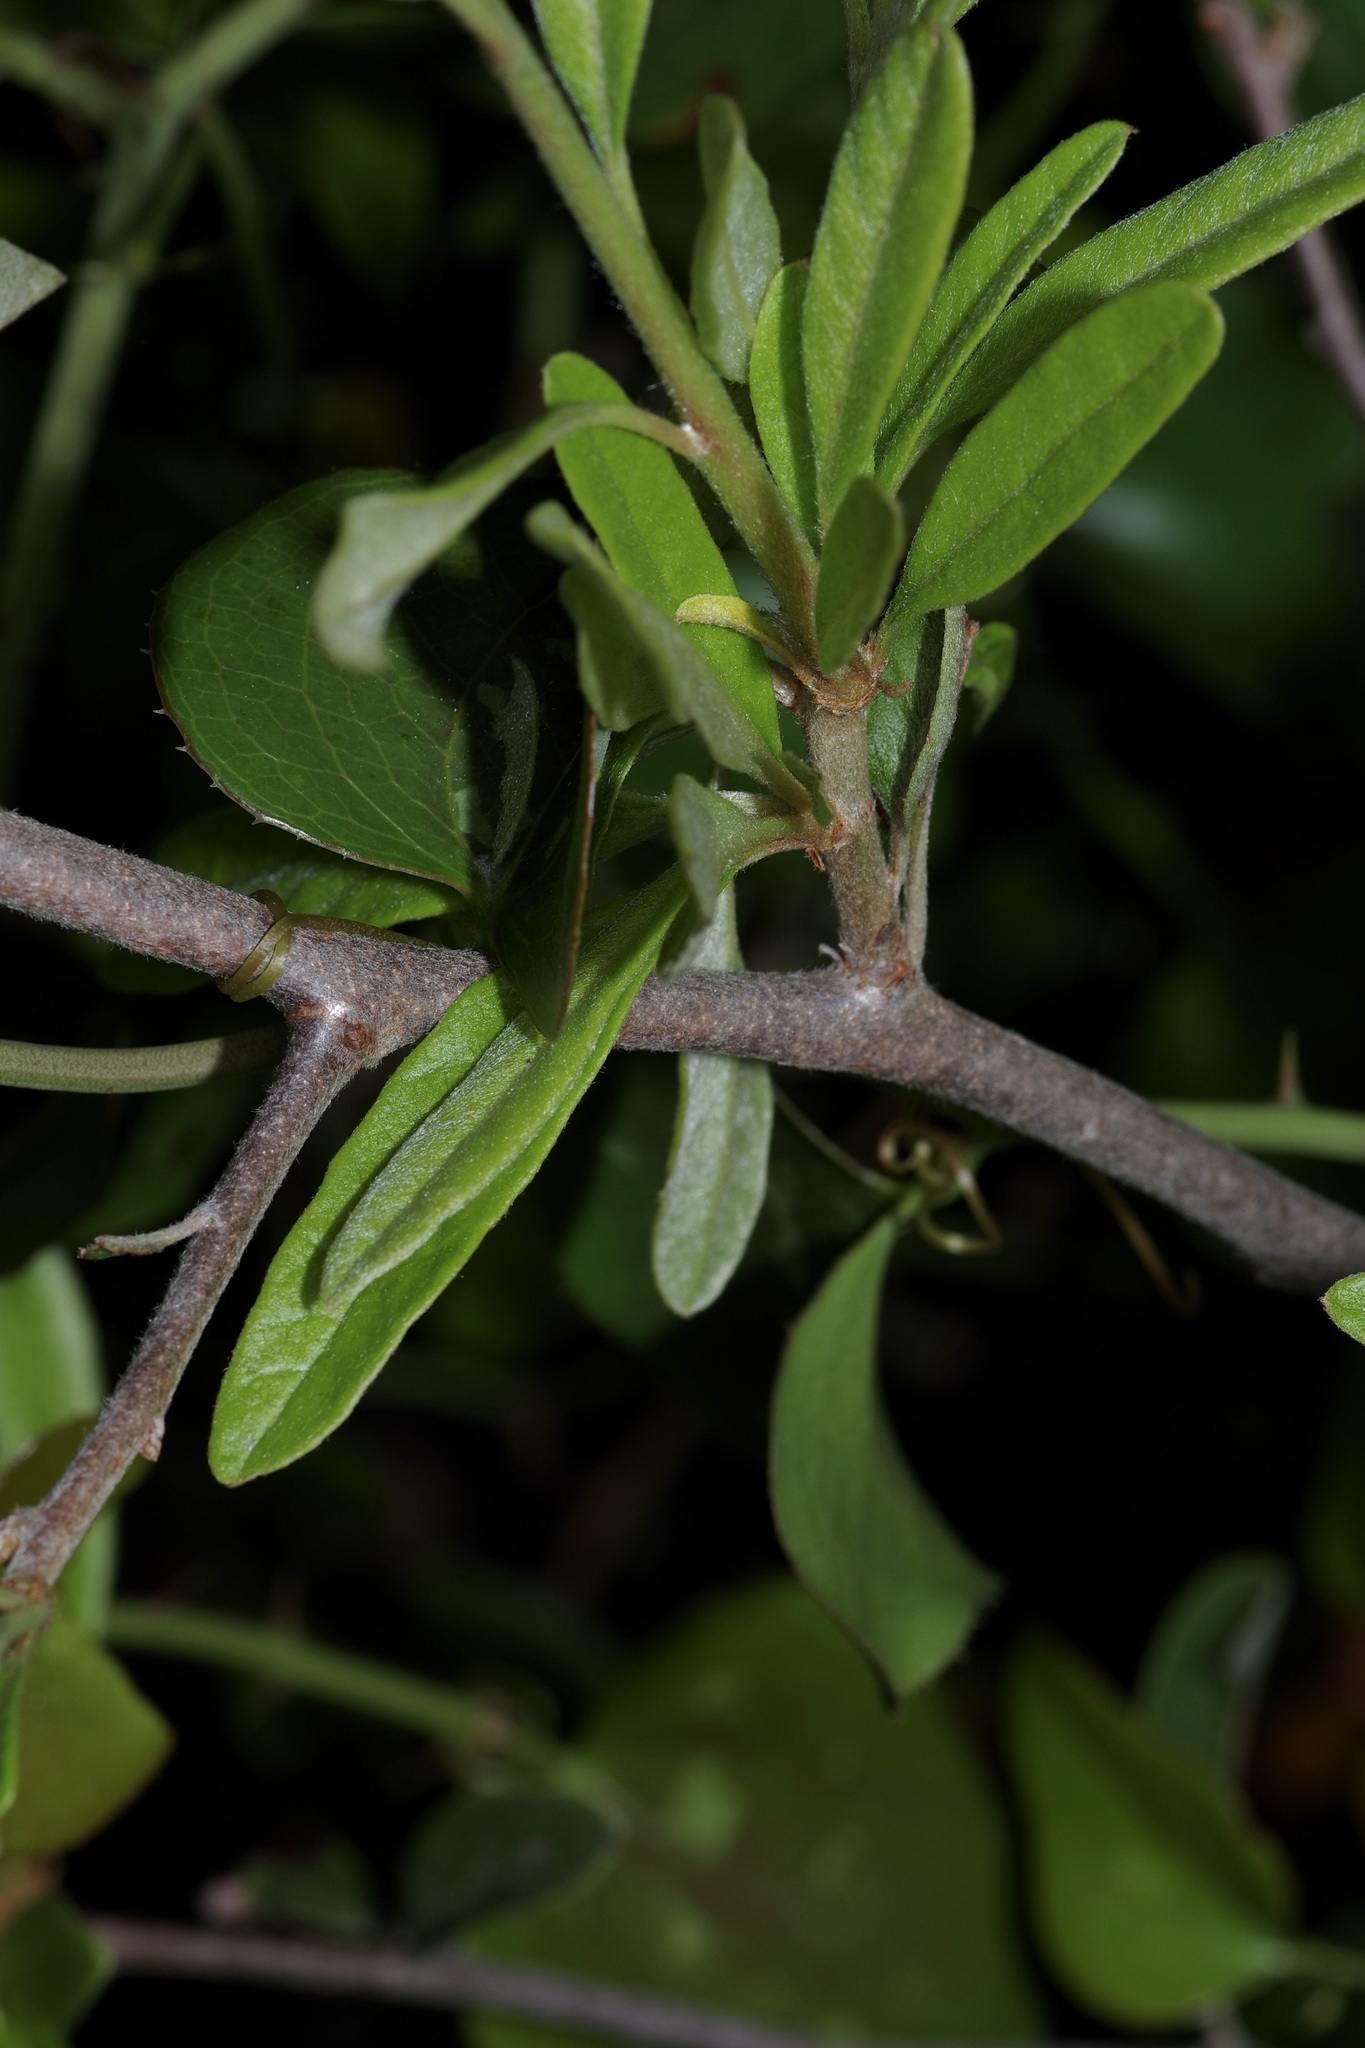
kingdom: Plantae
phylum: Tracheophyta
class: Magnoliopsida
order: Ericales
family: Sapotaceae
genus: Sideroxylon
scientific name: Sideroxylon lanuginosum
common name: Chittamwood
